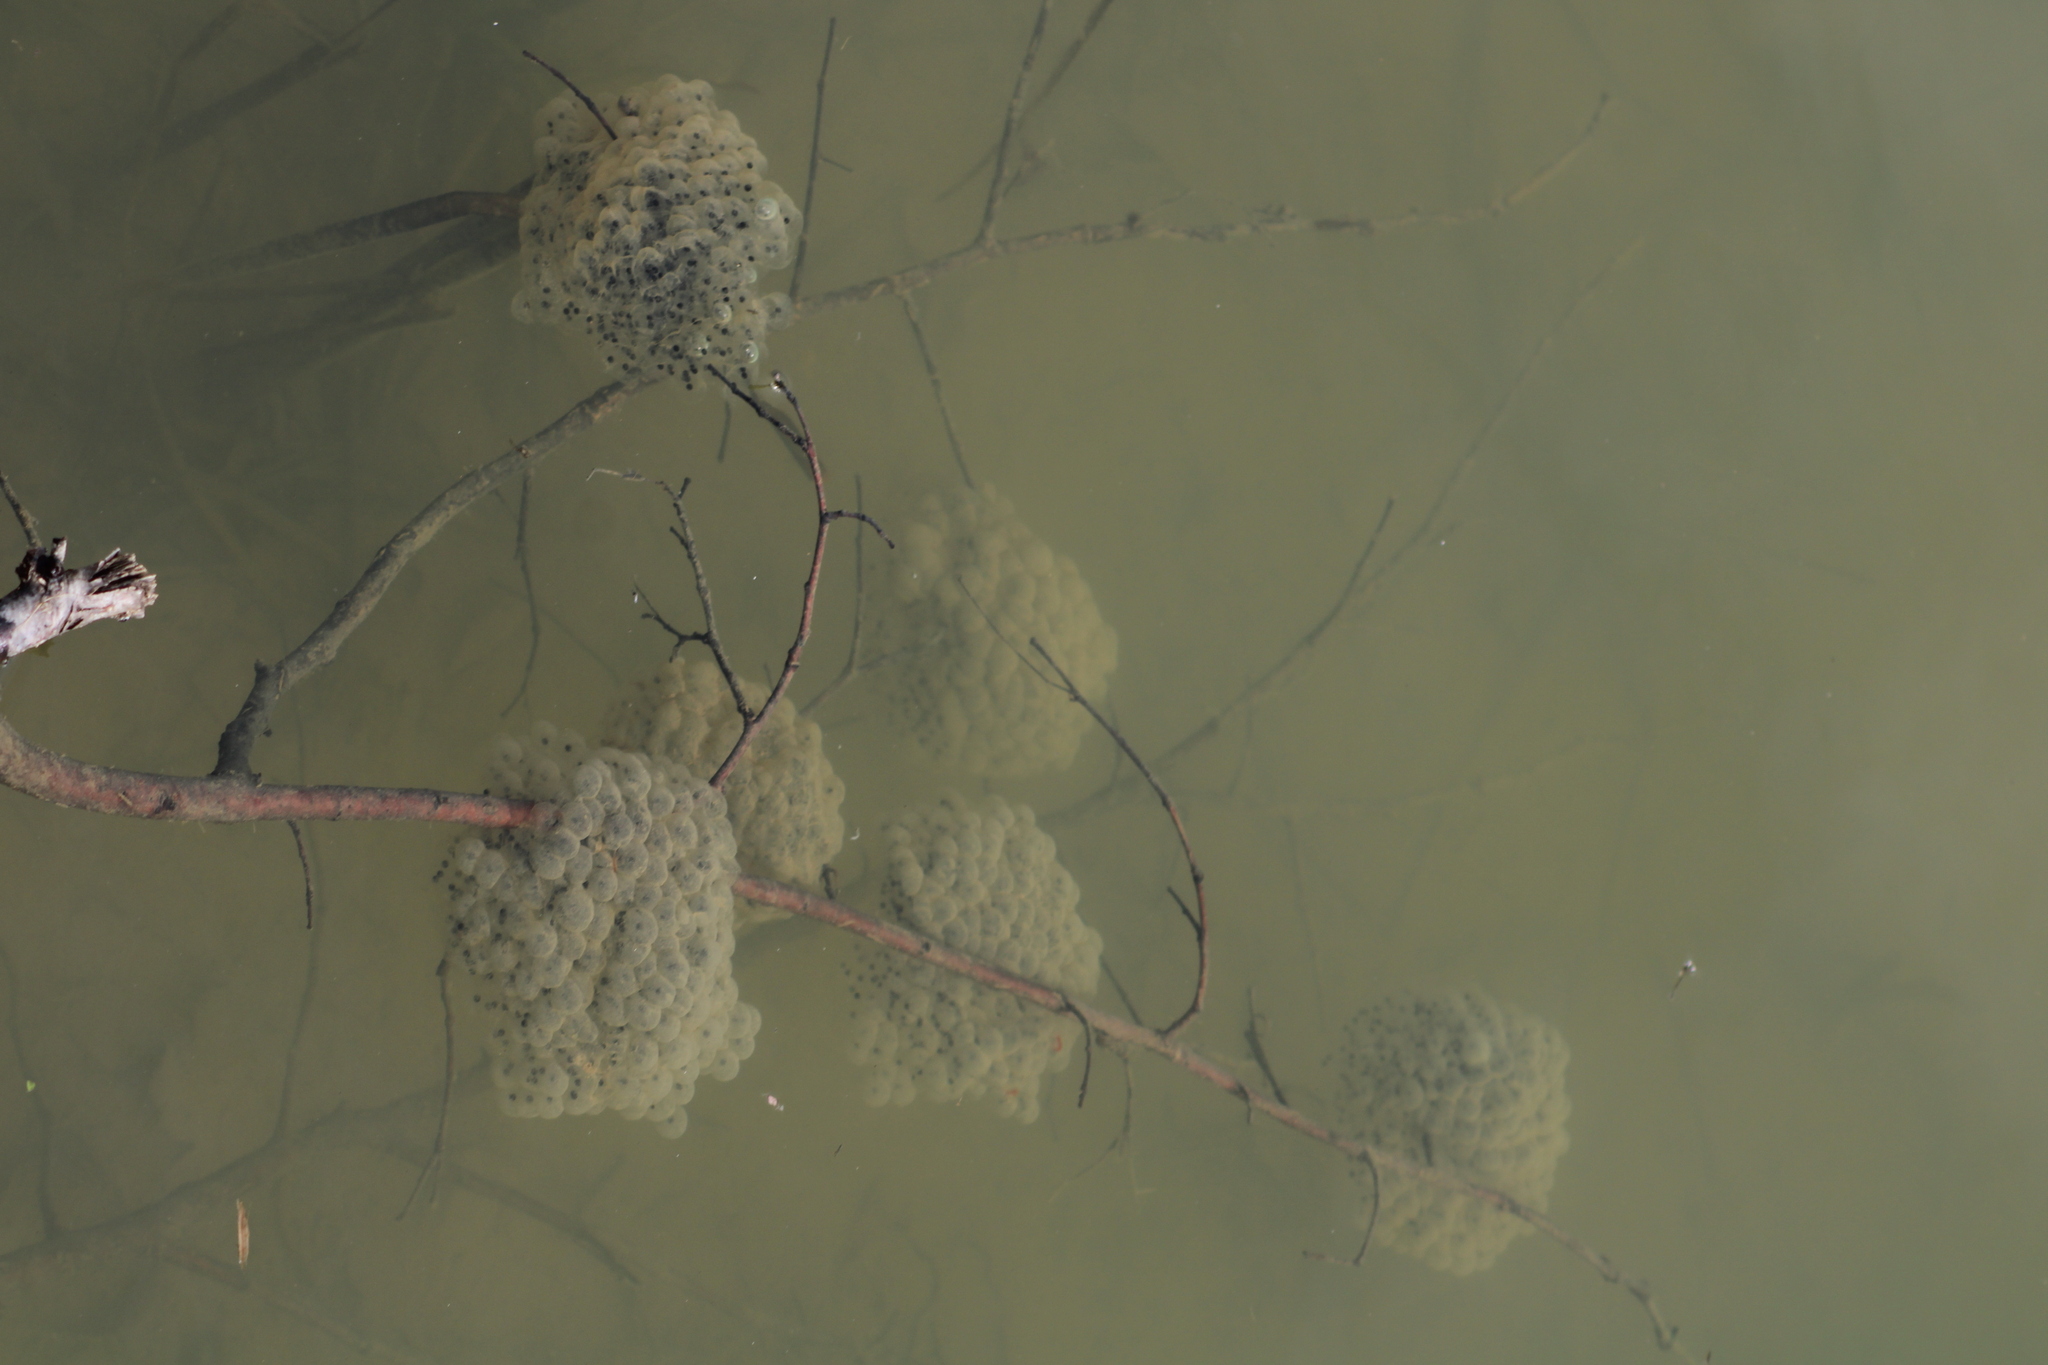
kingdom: Animalia
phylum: Chordata
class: Amphibia
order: Anura
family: Ranidae
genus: Rana
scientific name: Rana dalmatina
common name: Agile frog
